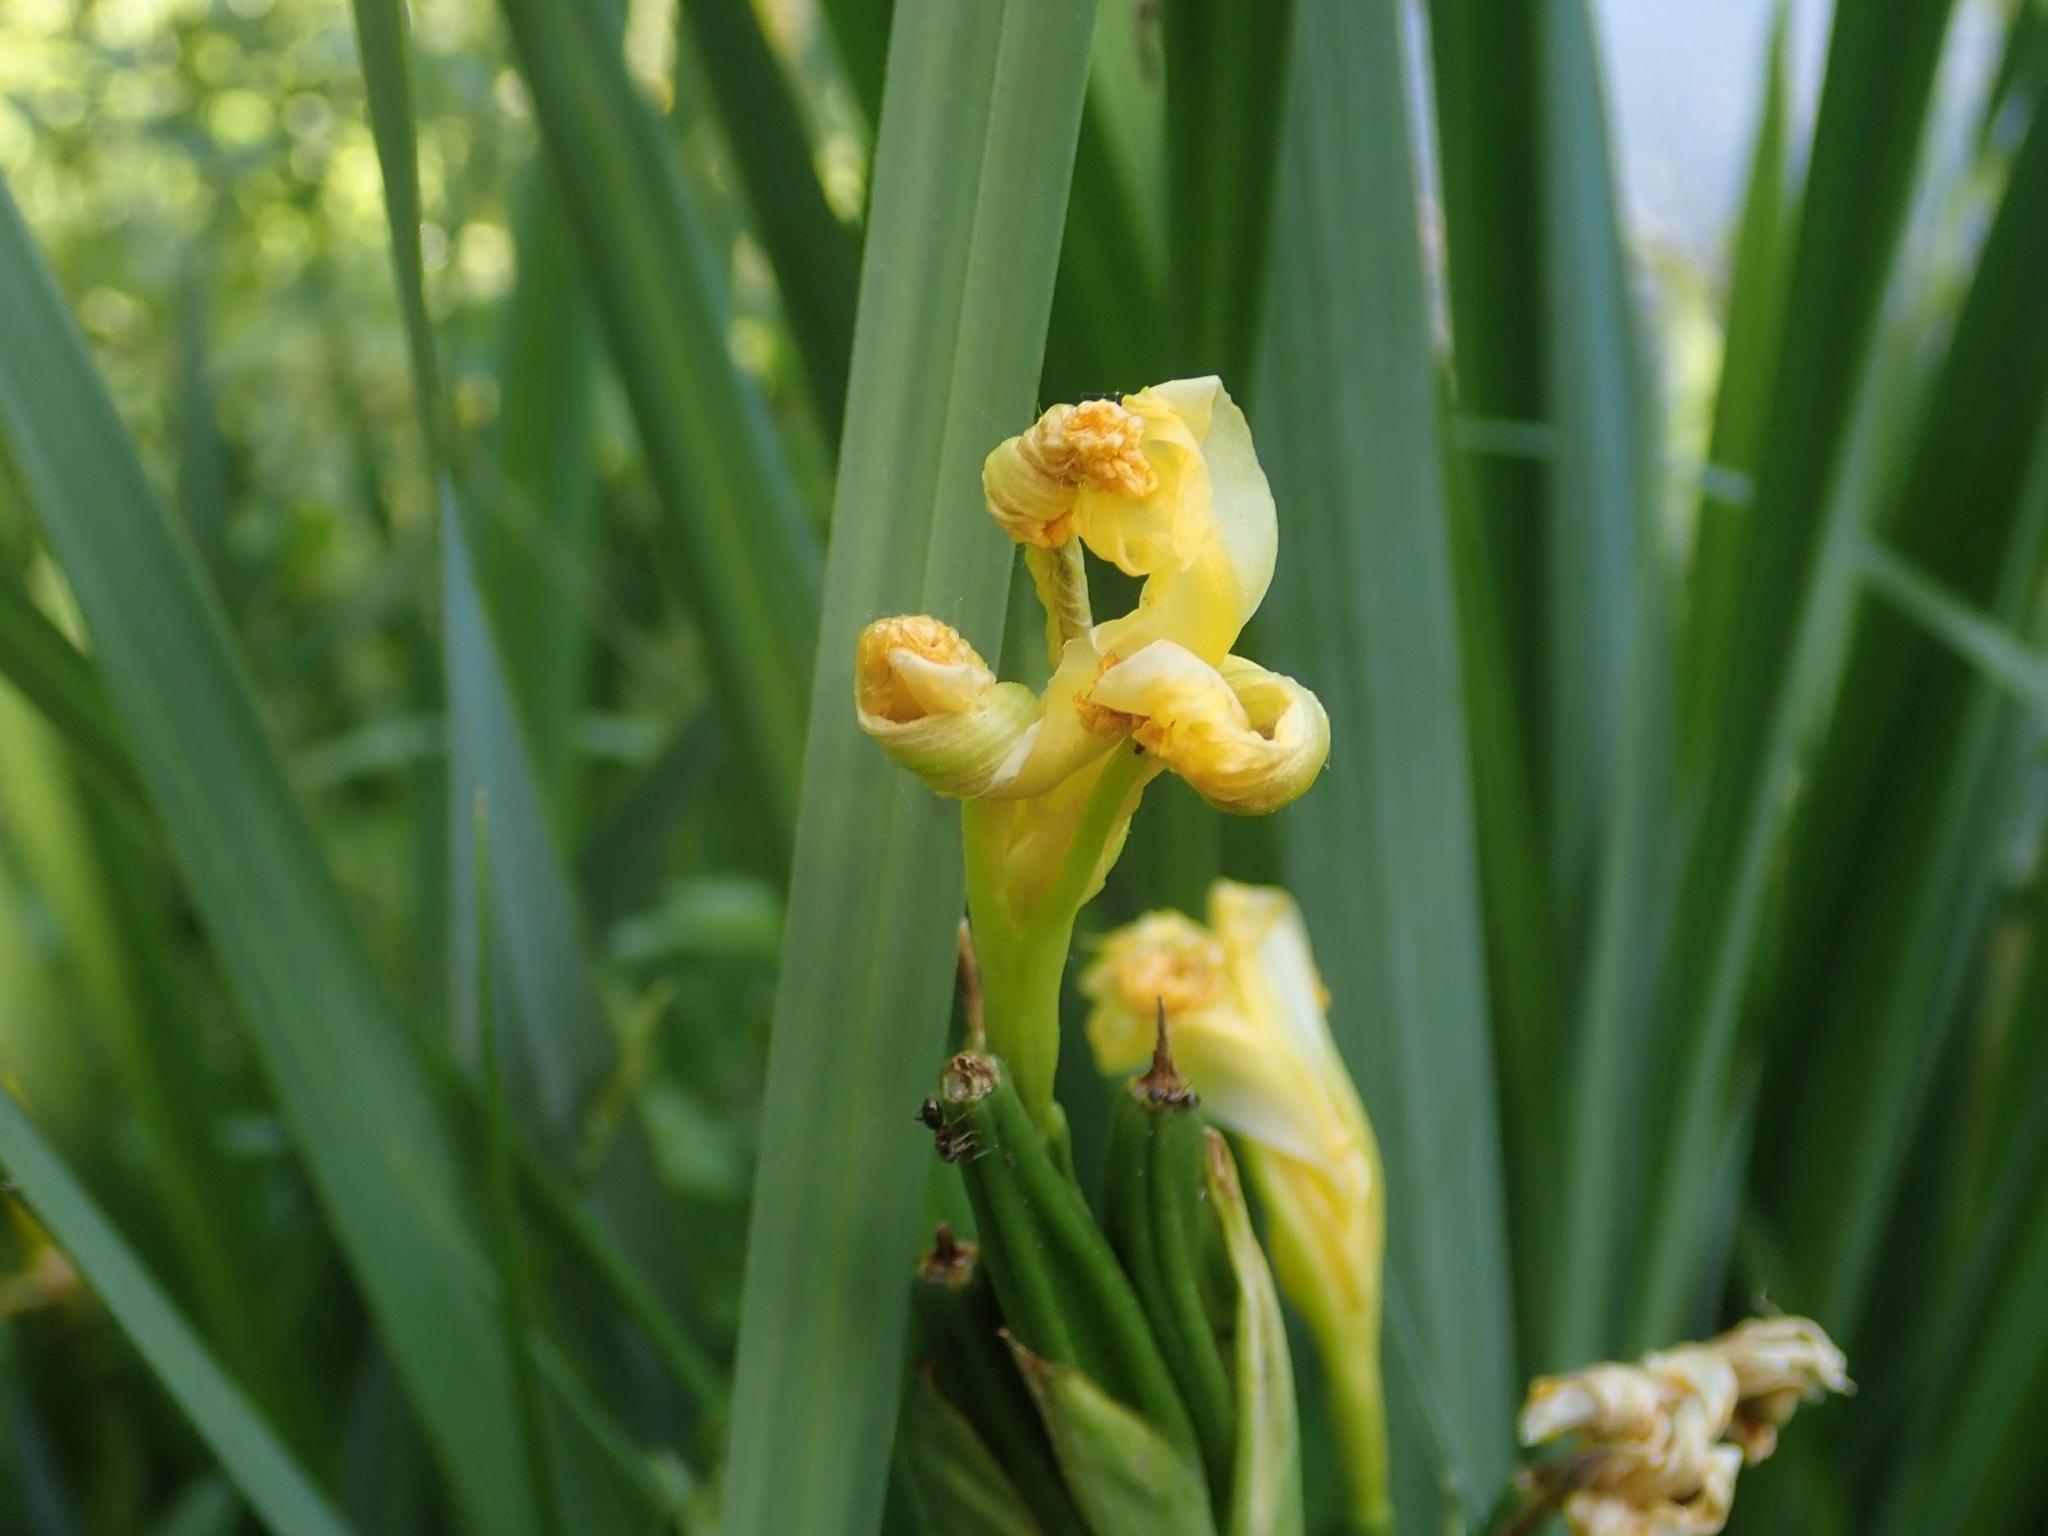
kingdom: Plantae
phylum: Tracheophyta
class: Liliopsida
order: Asparagales
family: Iridaceae
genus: Iris
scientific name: Iris pseudacorus
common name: Yellow flag
